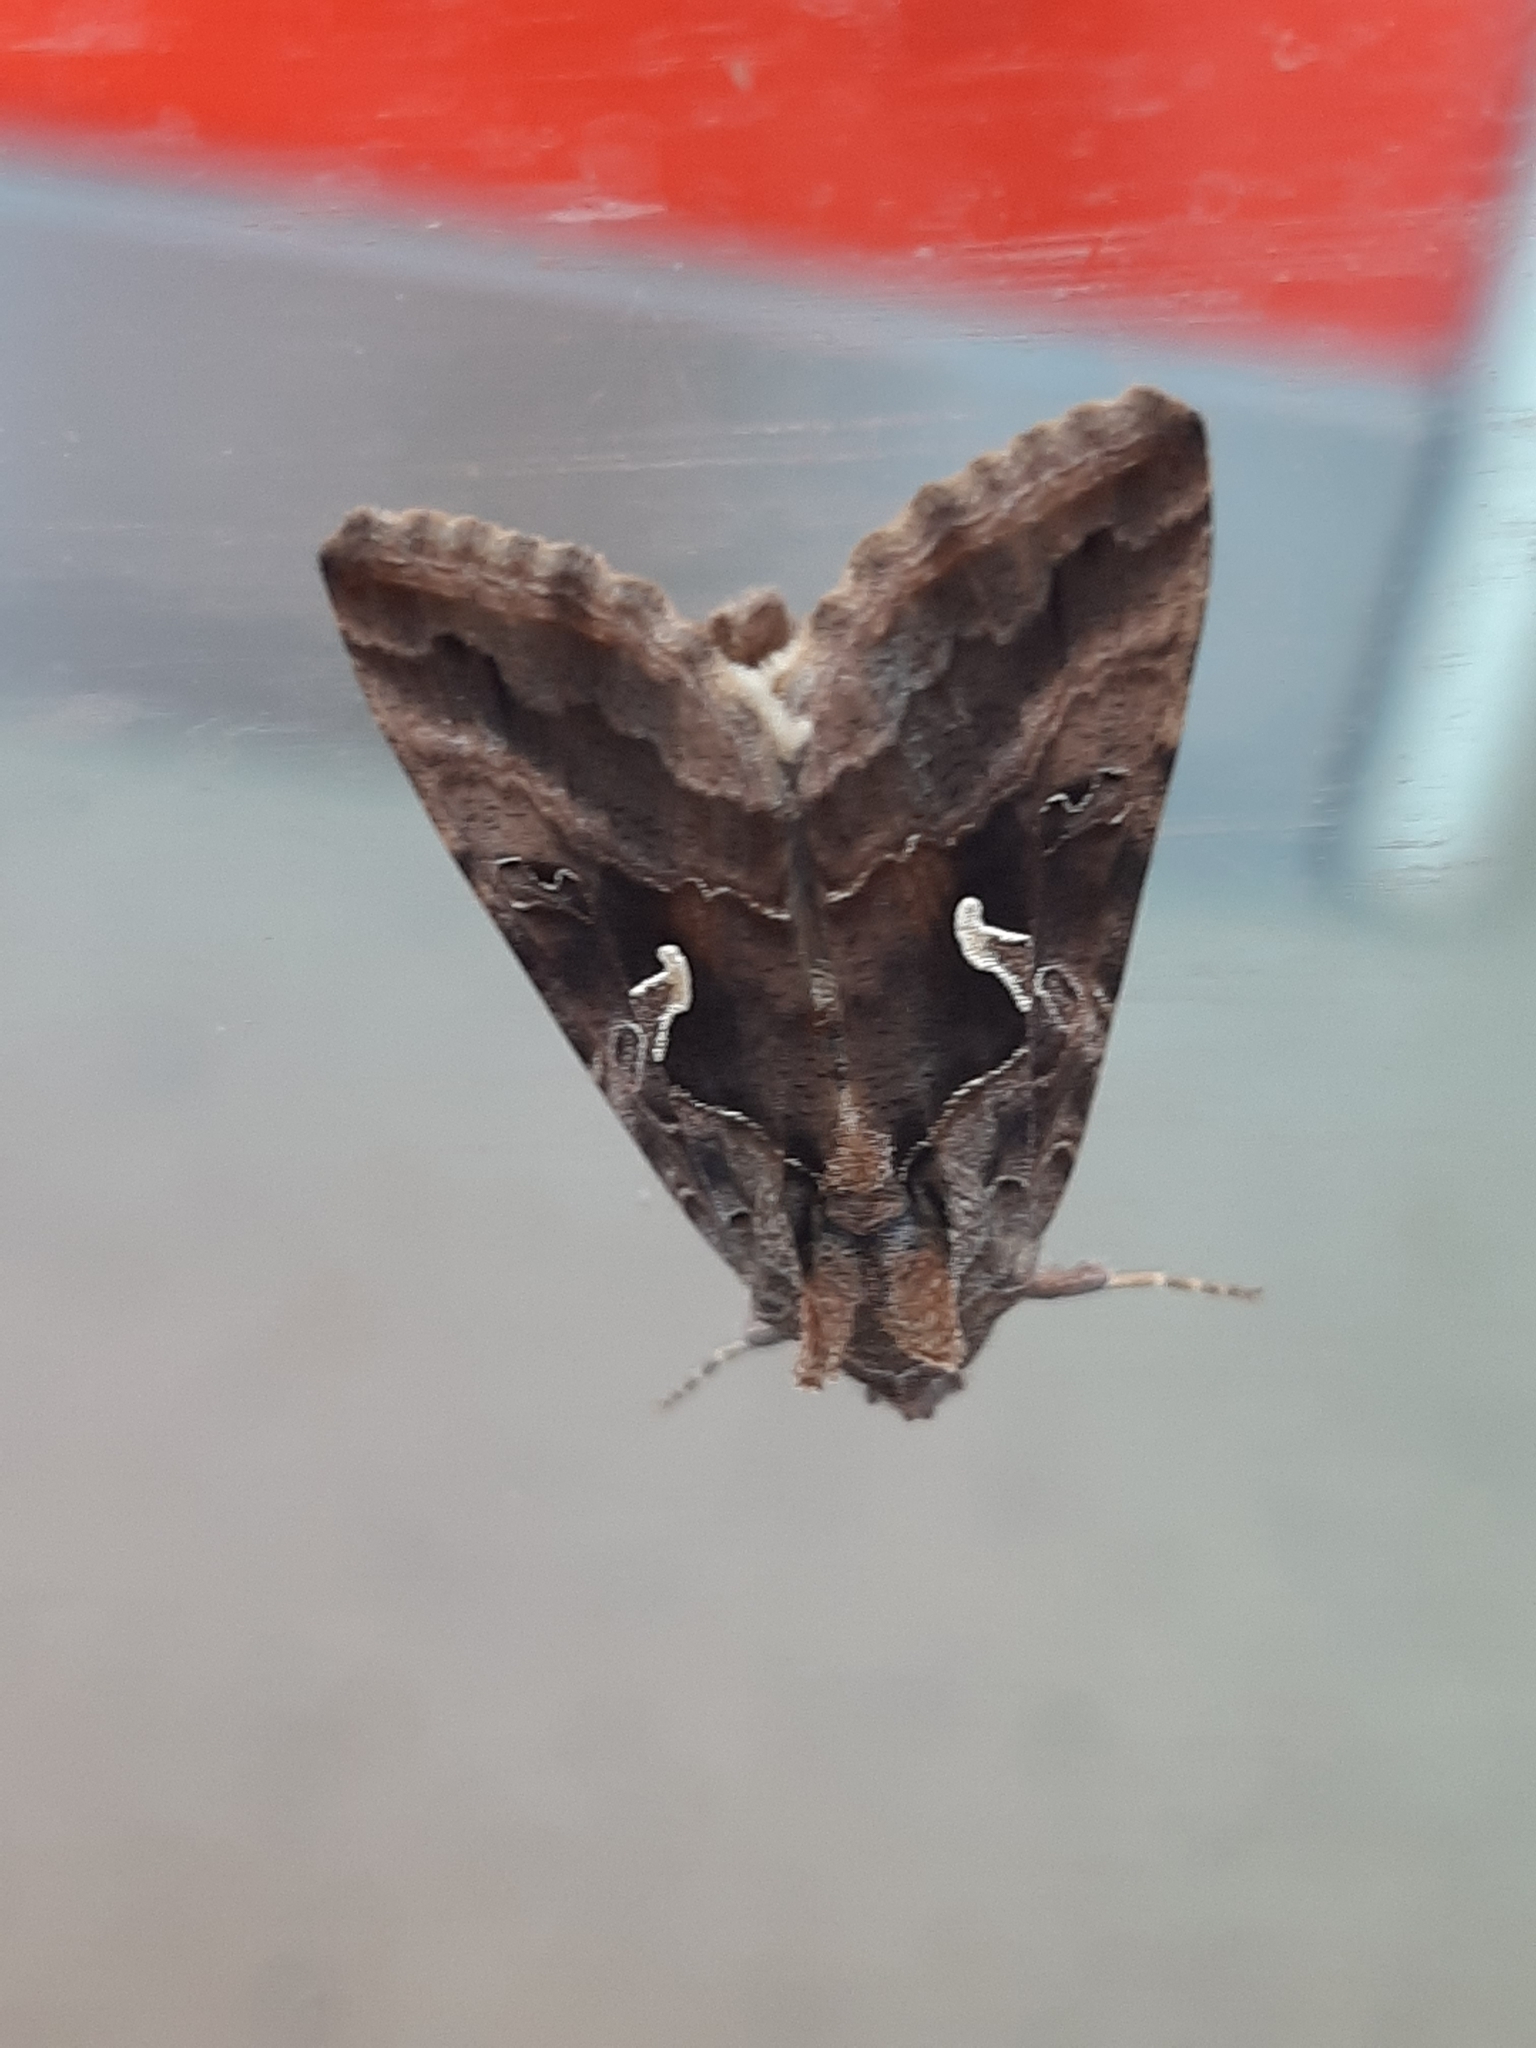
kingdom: Animalia
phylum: Arthropoda
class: Insecta
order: Lepidoptera
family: Noctuidae
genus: Autographa
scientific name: Autographa gamma
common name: Silver y
